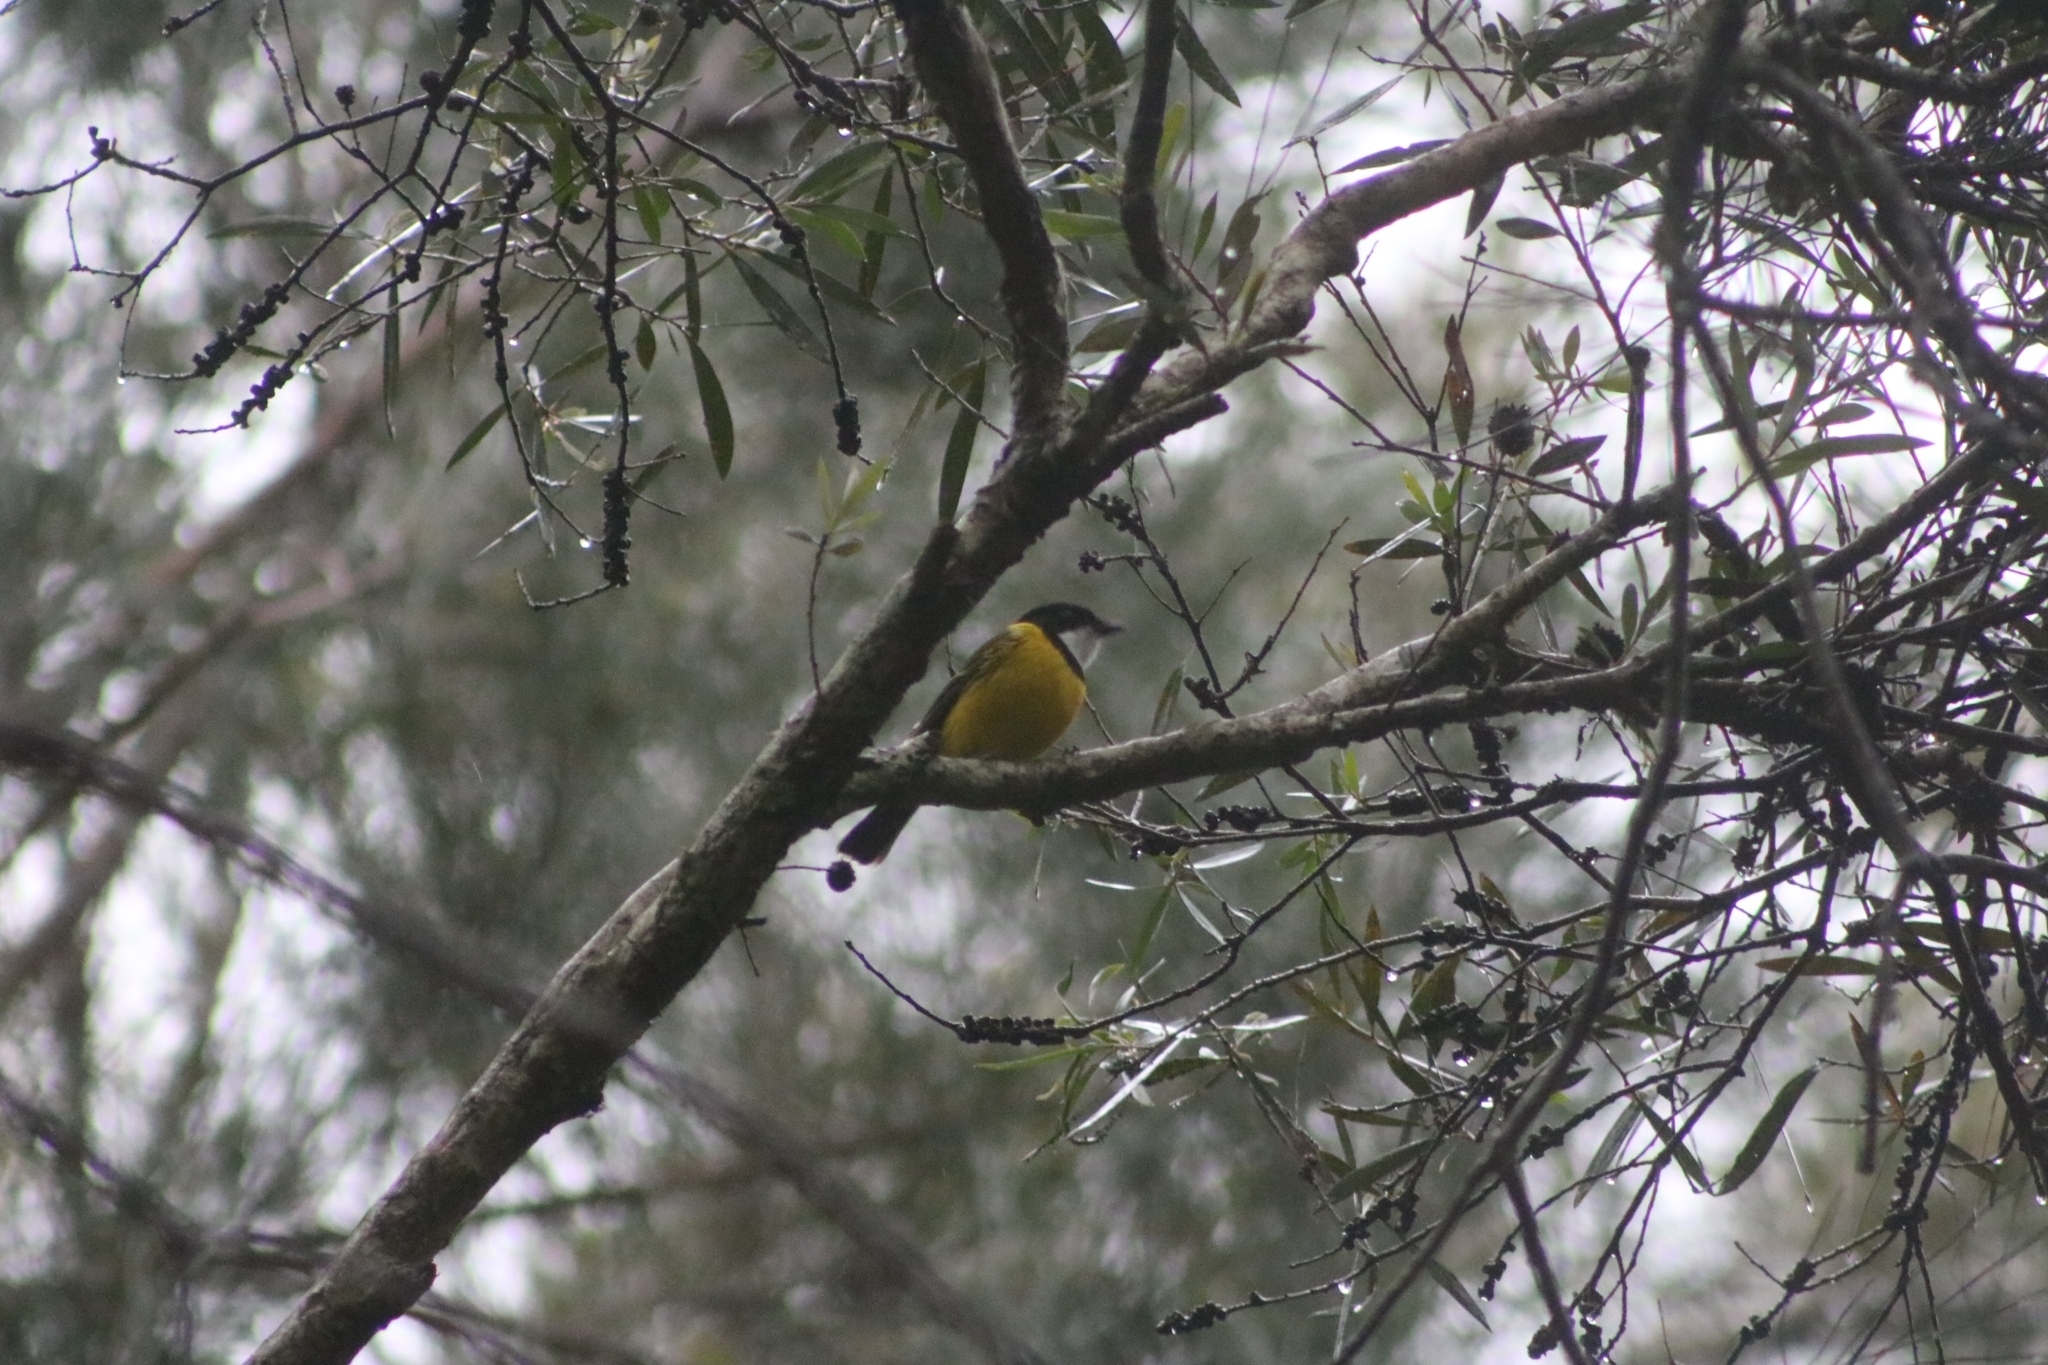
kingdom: Animalia
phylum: Chordata
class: Aves
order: Passeriformes
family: Pachycephalidae
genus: Pachycephala
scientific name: Pachycephala pectoralis
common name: Australian golden whistler
